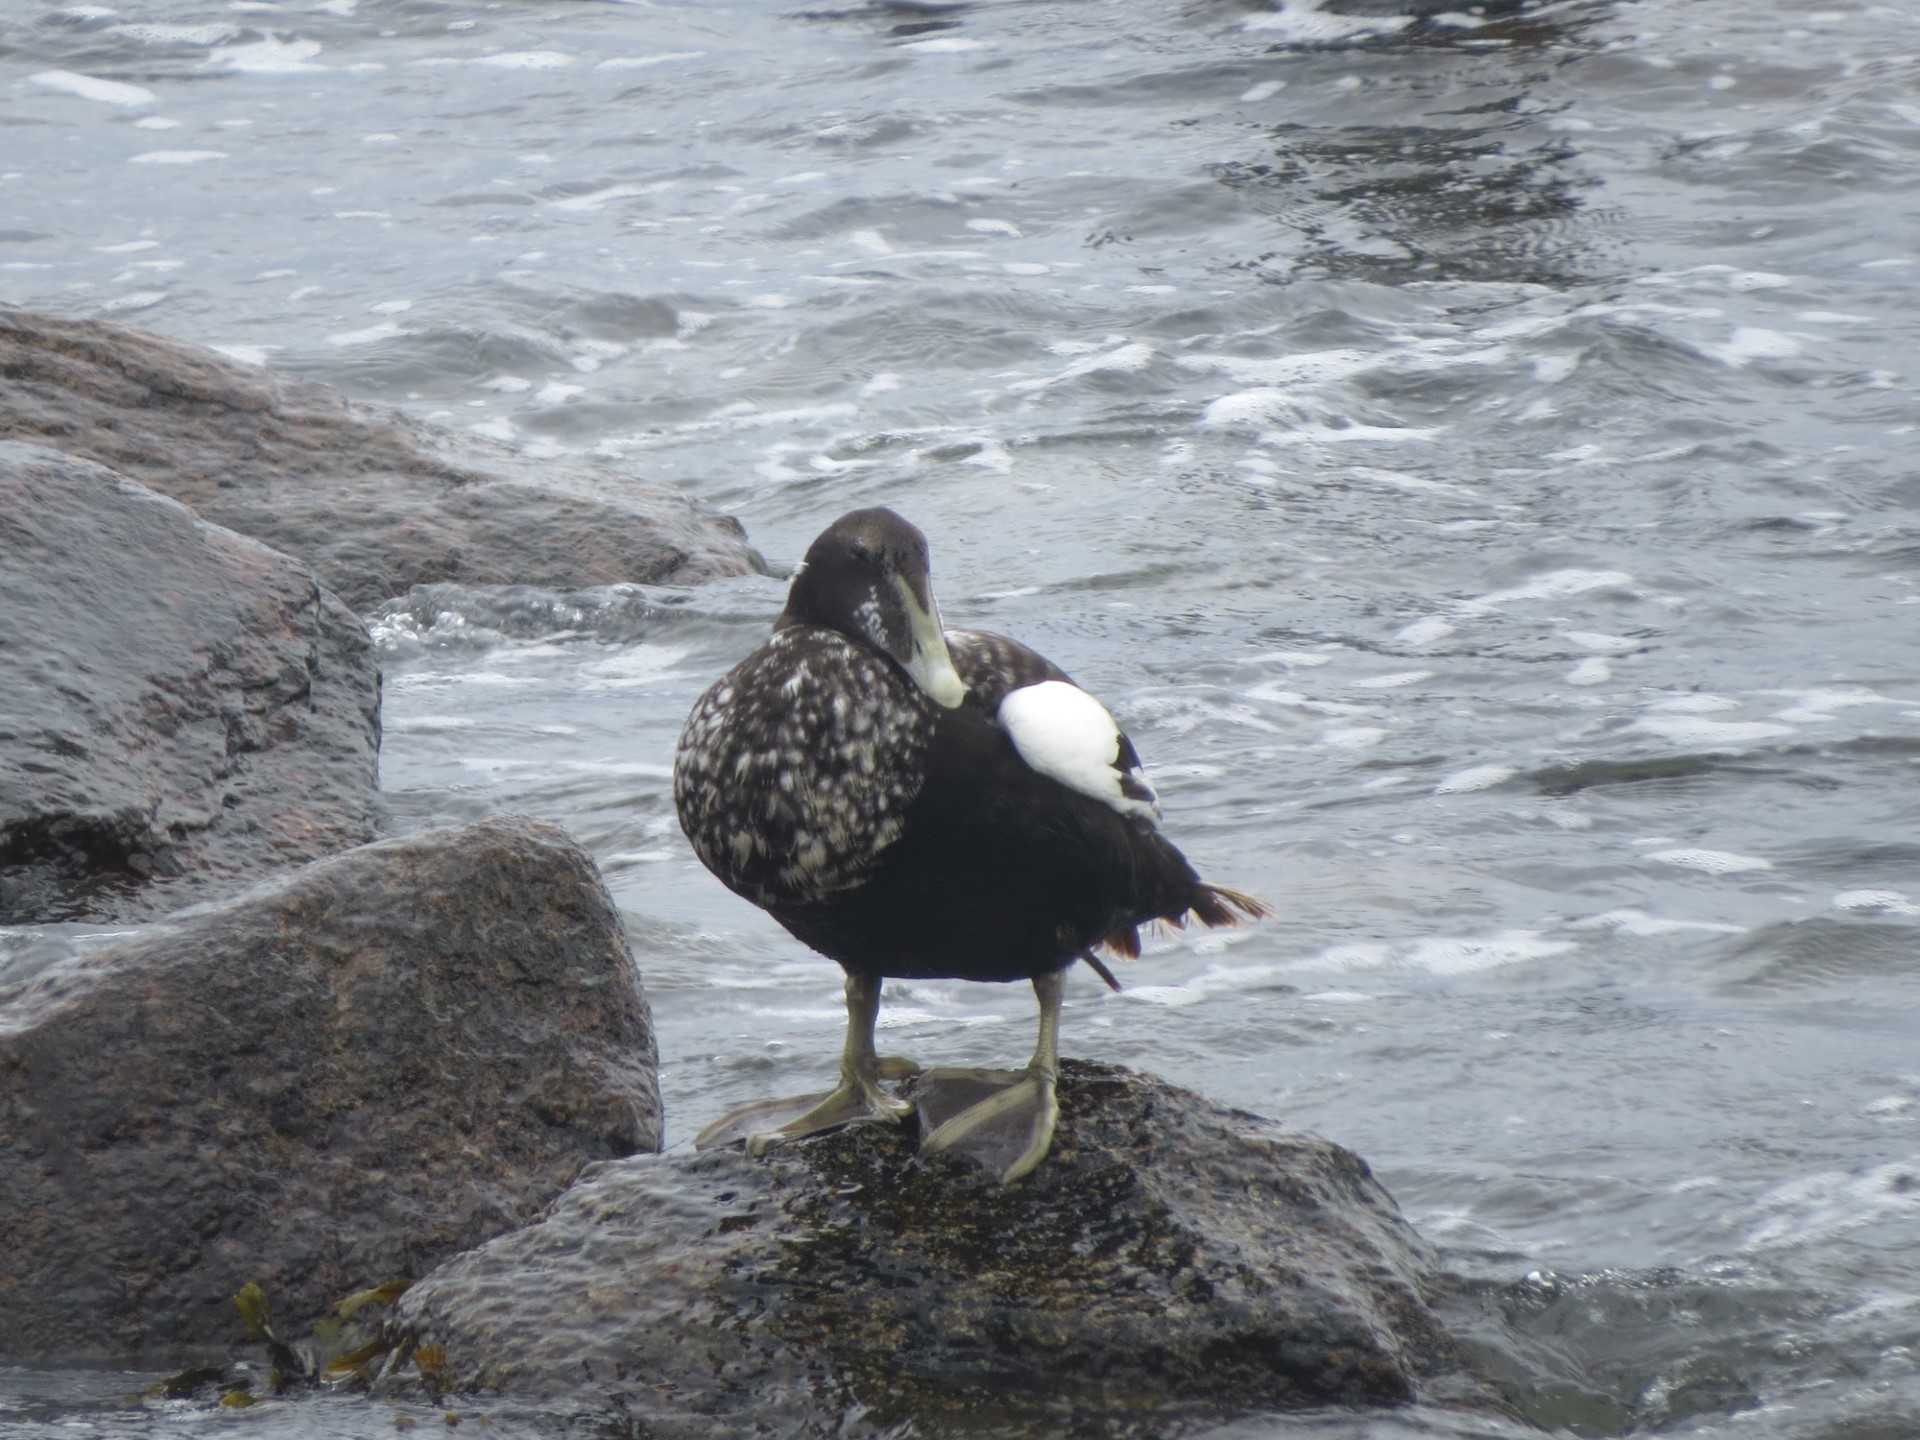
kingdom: Animalia
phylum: Chordata
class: Aves
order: Anseriformes
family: Anatidae
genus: Somateria
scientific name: Somateria mollissima
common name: Common eider
